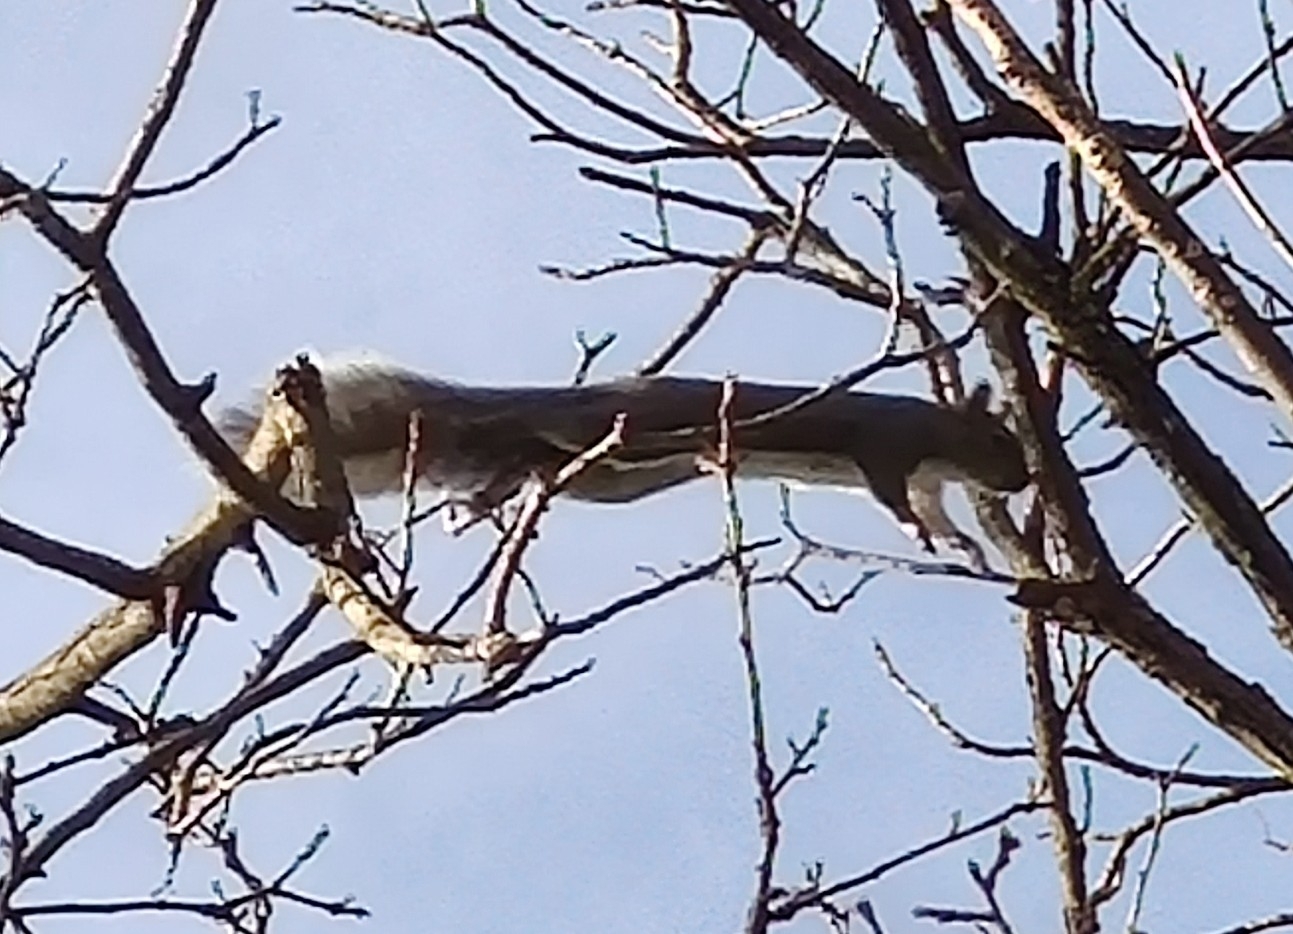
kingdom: Animalia
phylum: Chordata
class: Mammalia
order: Rodentia
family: Sciuridae
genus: Sciurus
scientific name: Sciurus griseus
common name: Western gray squirrel
